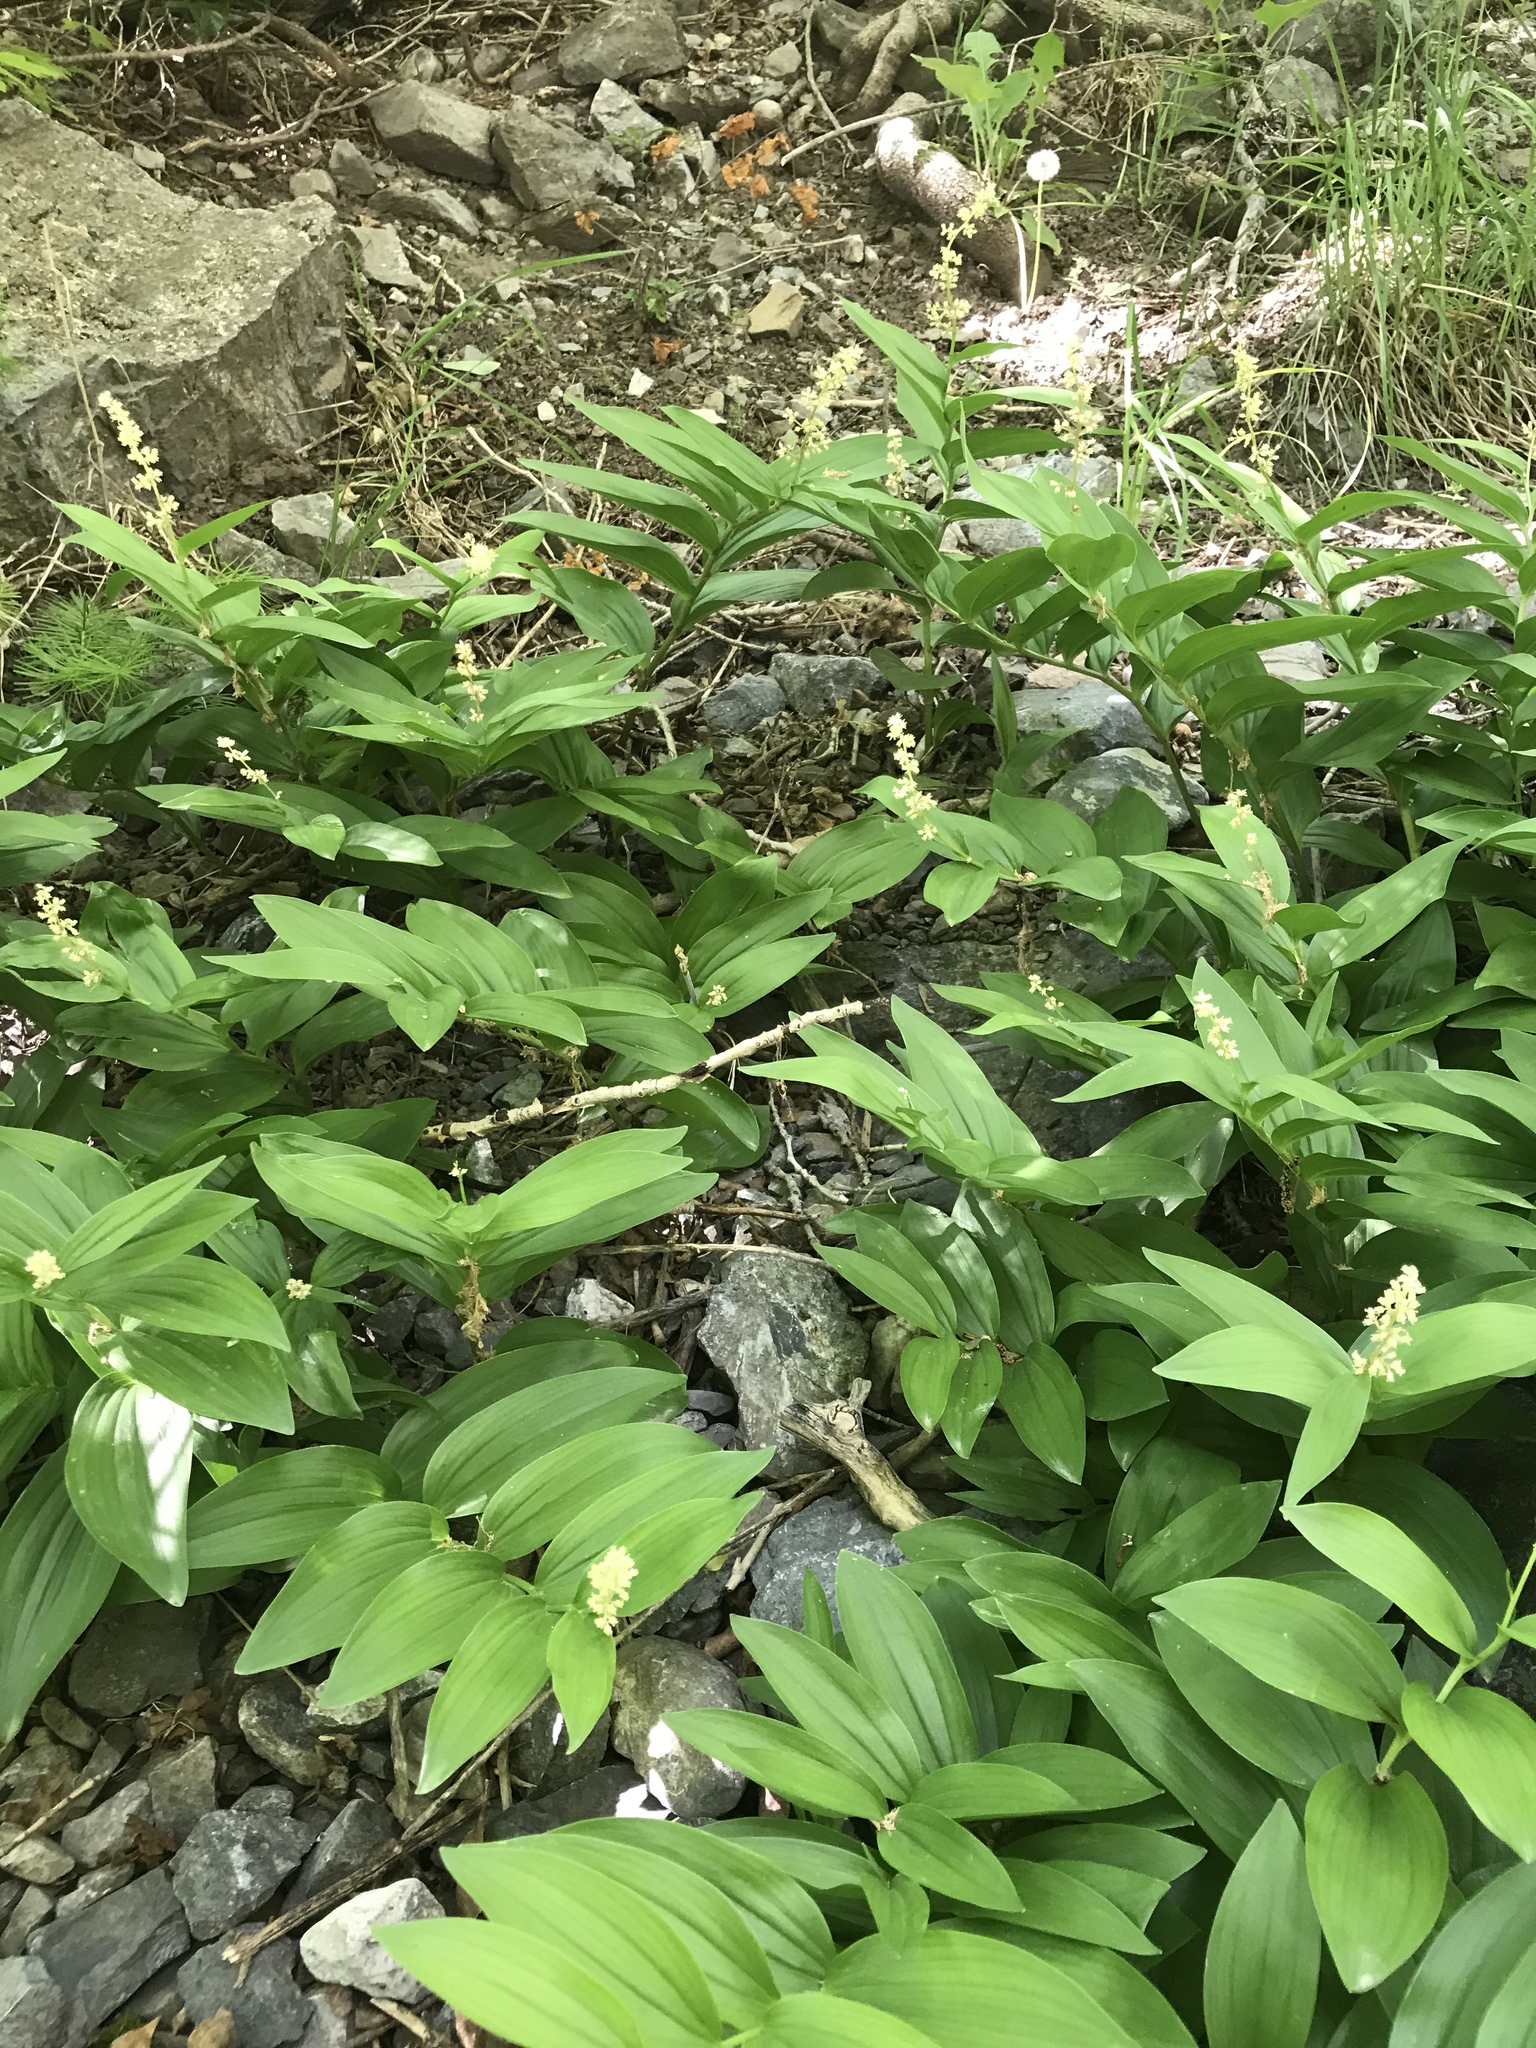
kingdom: Plantae
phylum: Tracheophyta
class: Liliopsida
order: Asparagales
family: Asparagaceae
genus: Maianthemum
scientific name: Maianthemum racemosum
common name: False spikenard
